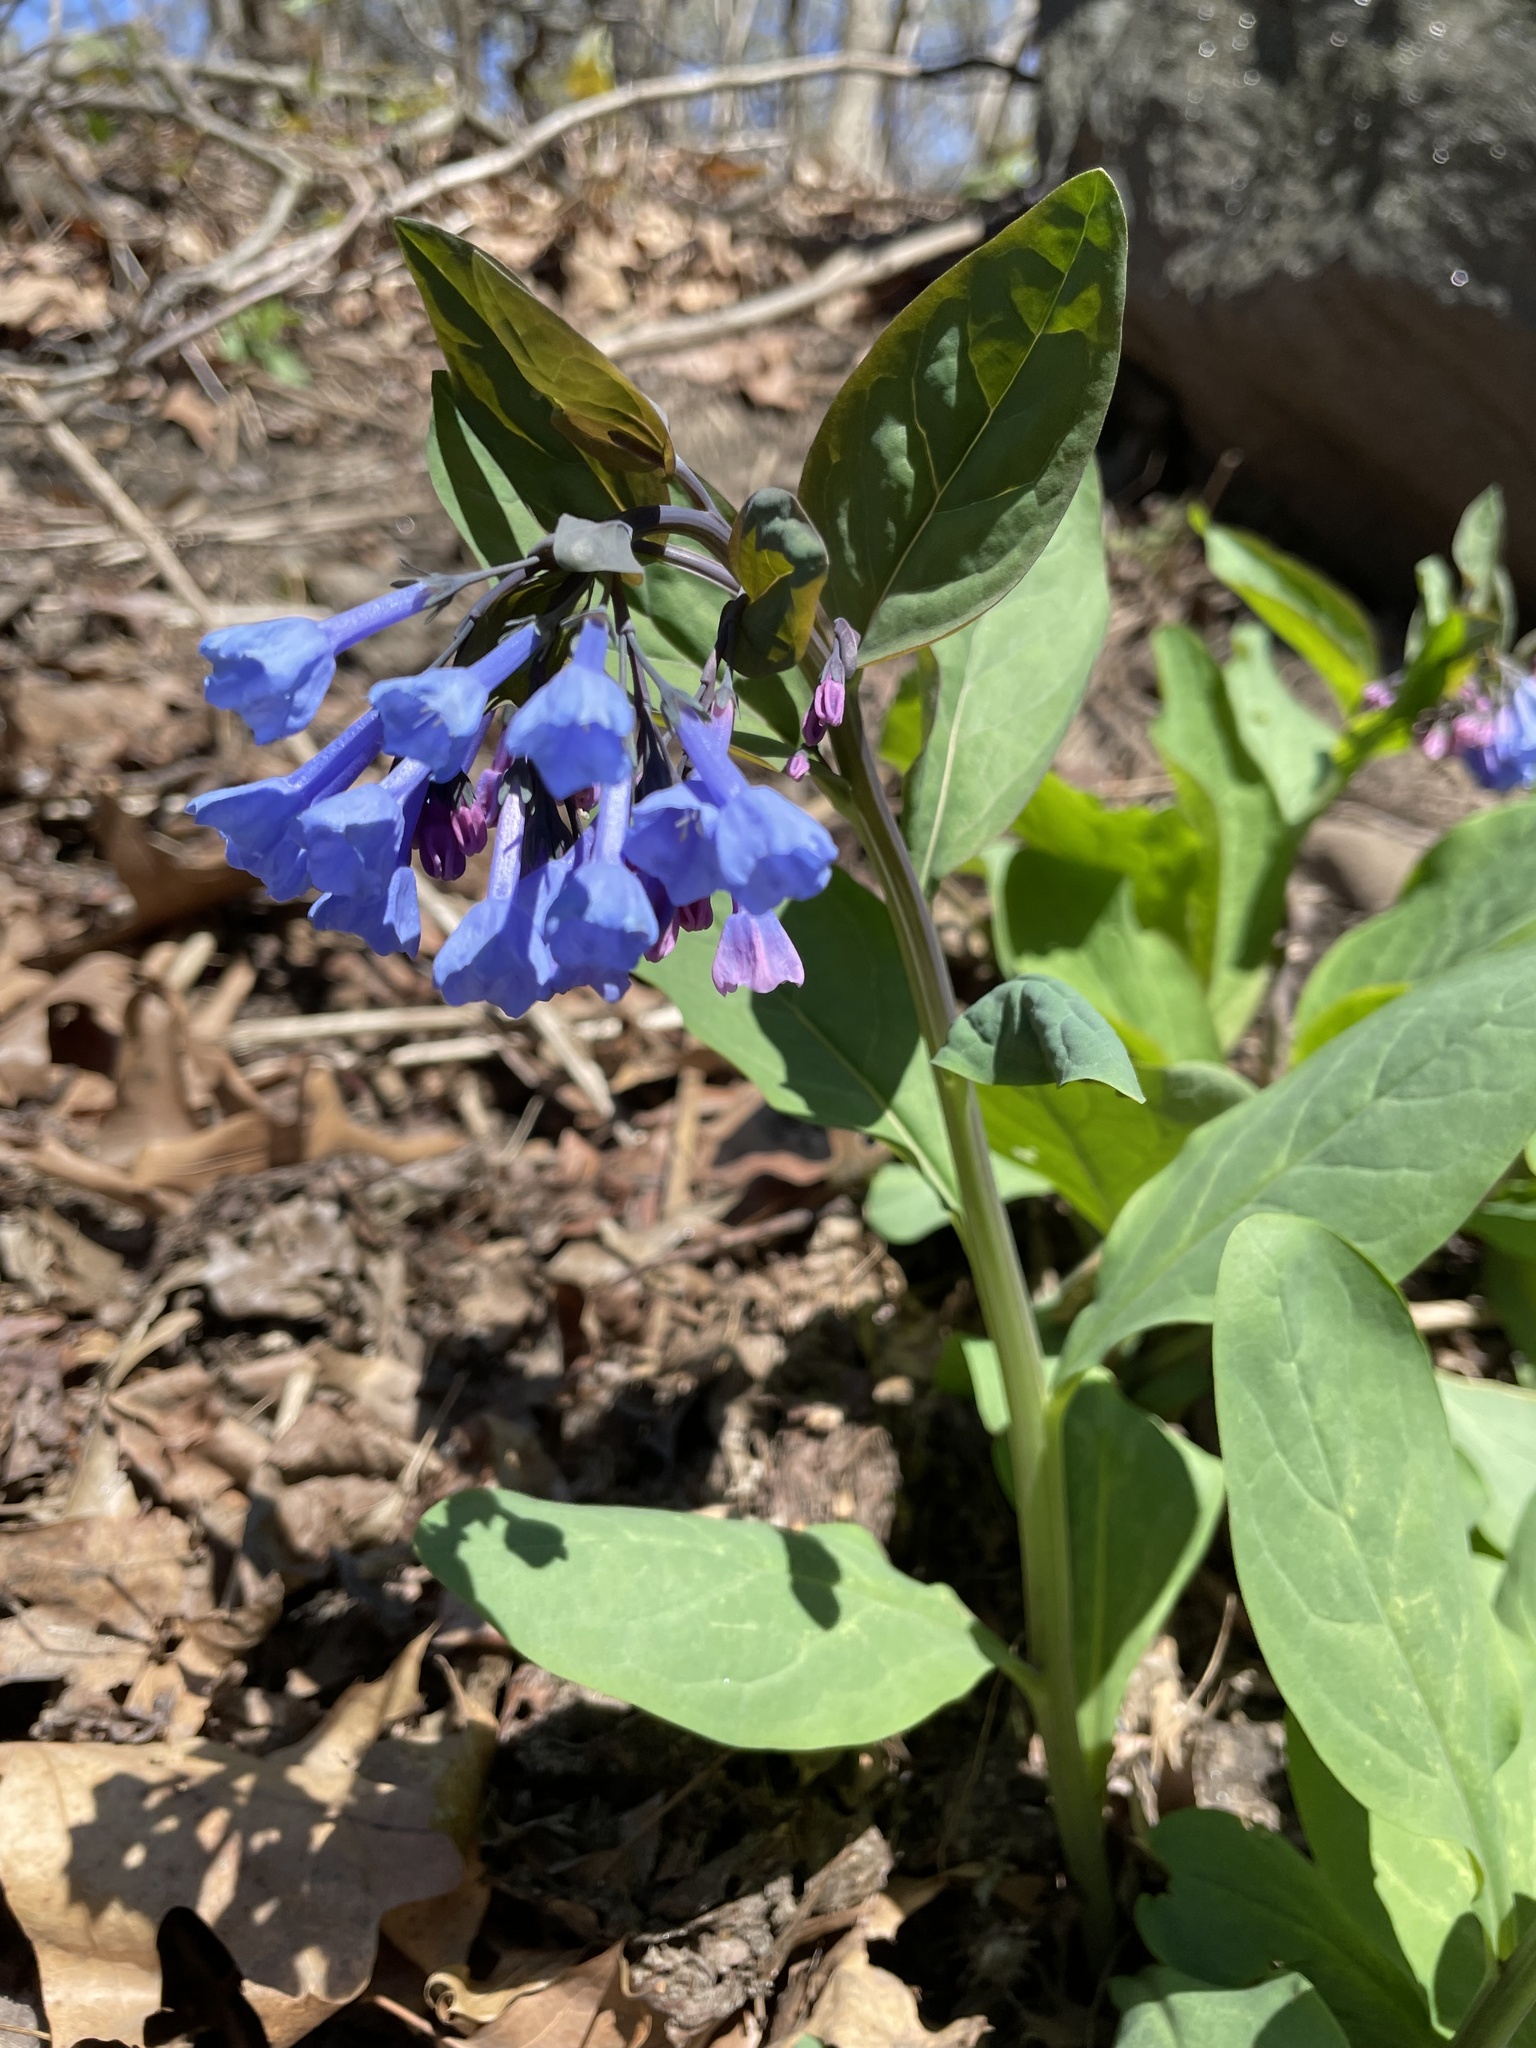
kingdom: Plantae
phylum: Tracheophyta
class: Magnoliopsida
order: Boraginales
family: Boraginaceae
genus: Mertensia
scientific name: Mertensia virginica
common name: Virginia bluebells
